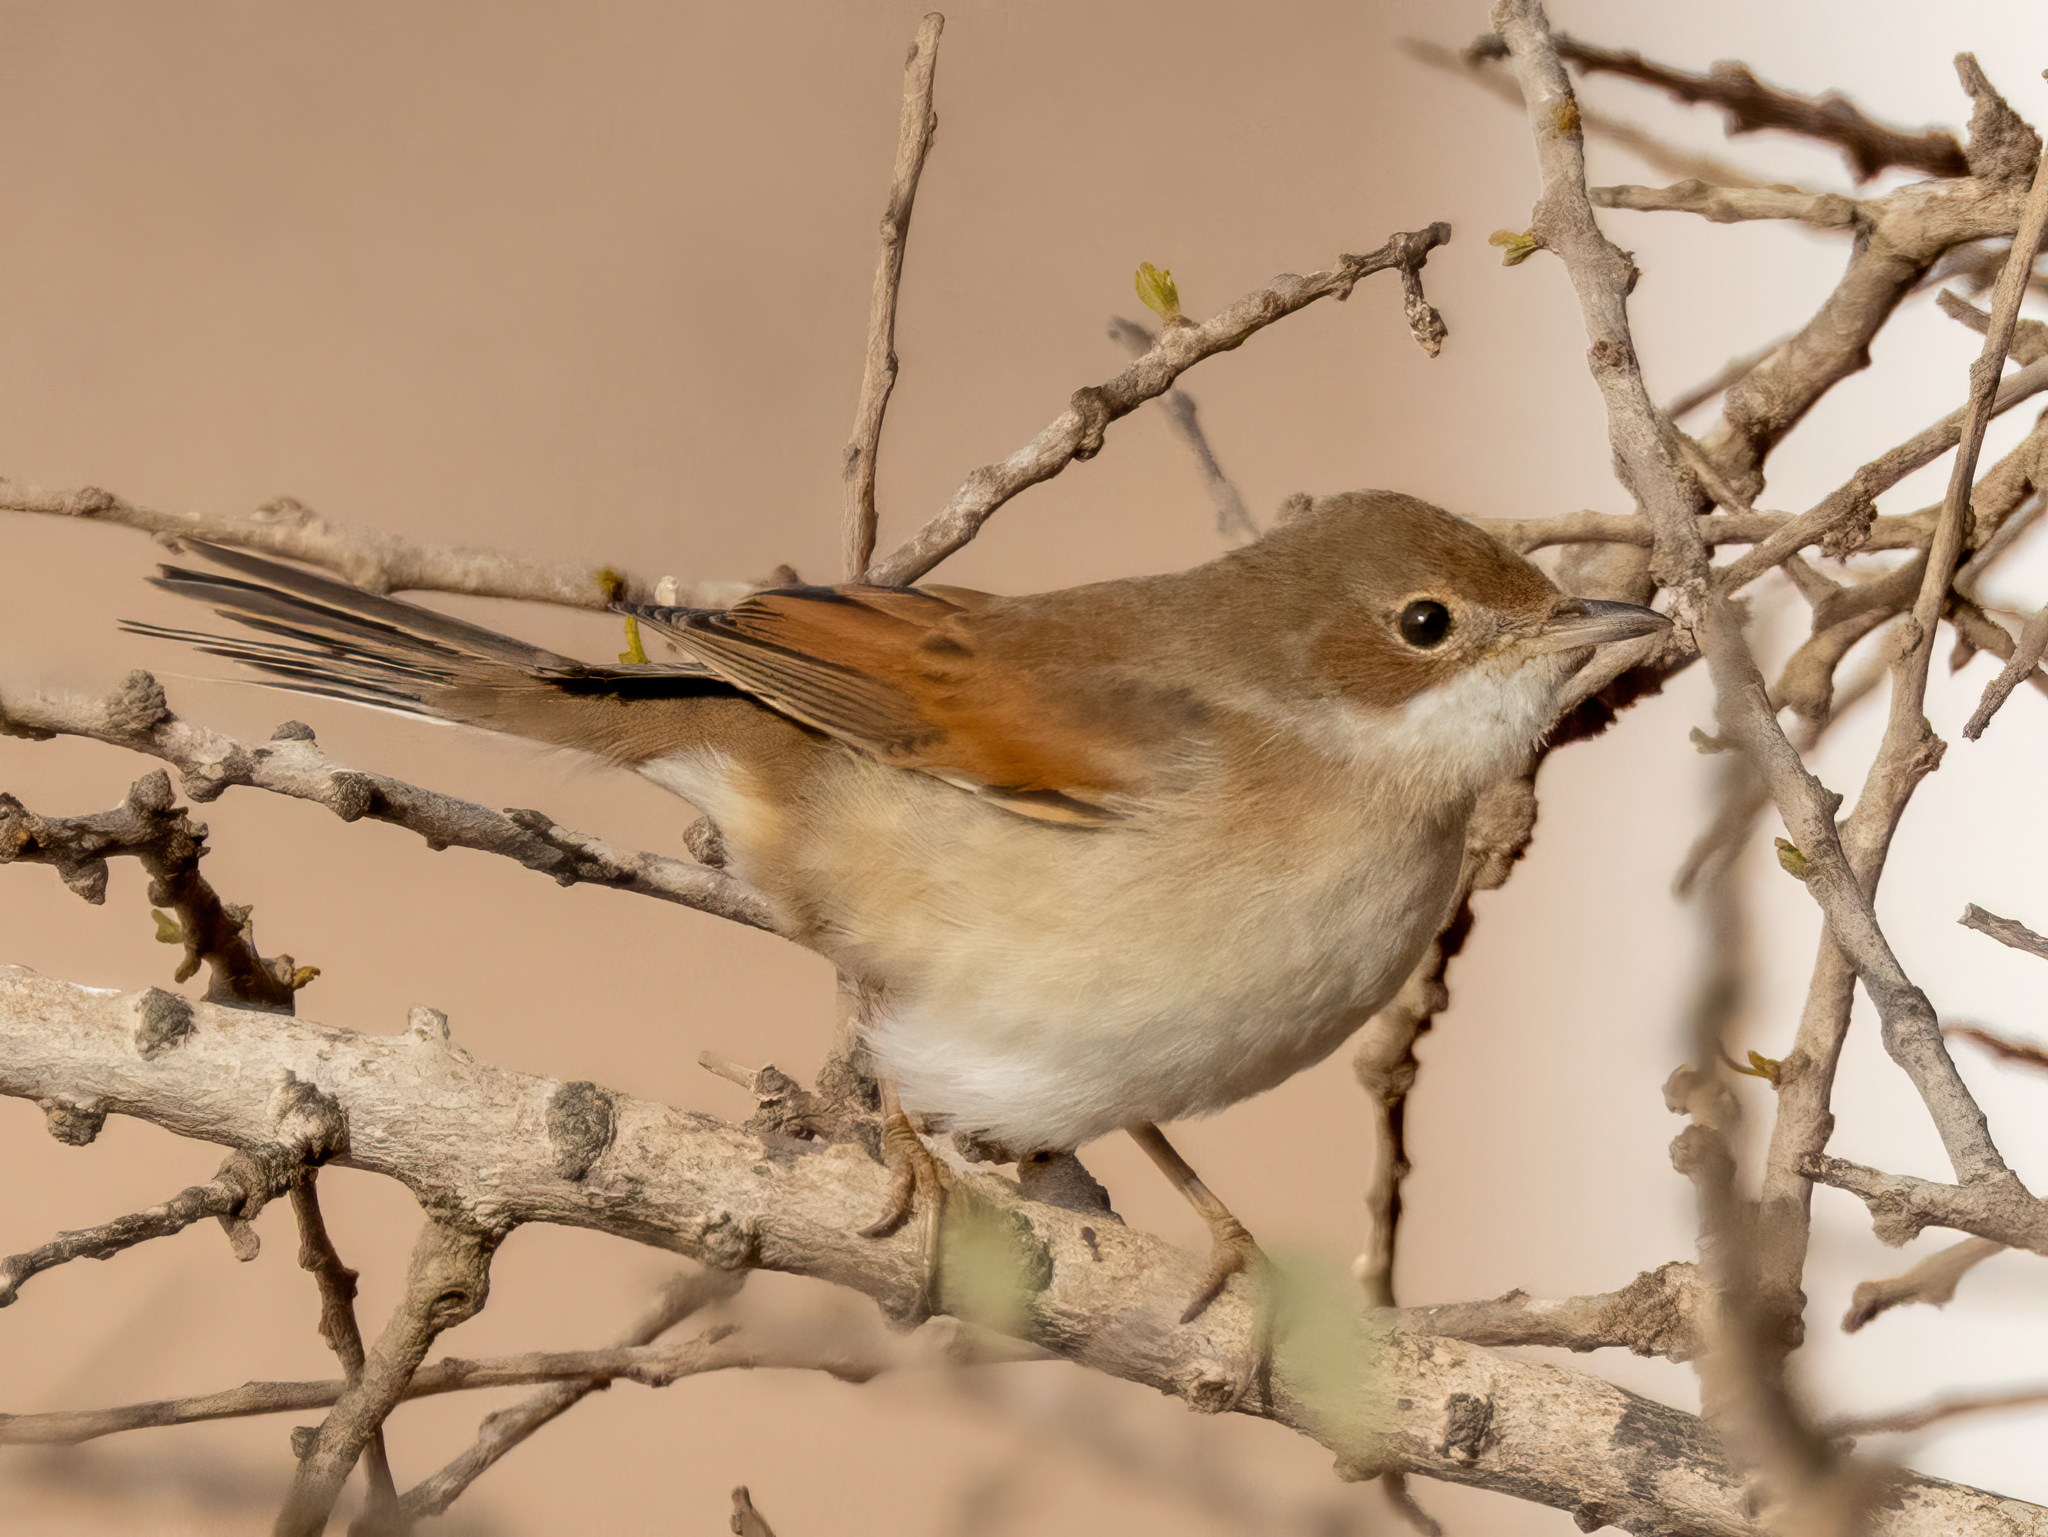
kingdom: Animalia
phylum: Chordata
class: Aves
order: Passeriformes
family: Sylviidae
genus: Sylvia
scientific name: Sylvia communis
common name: Common whitethroat
